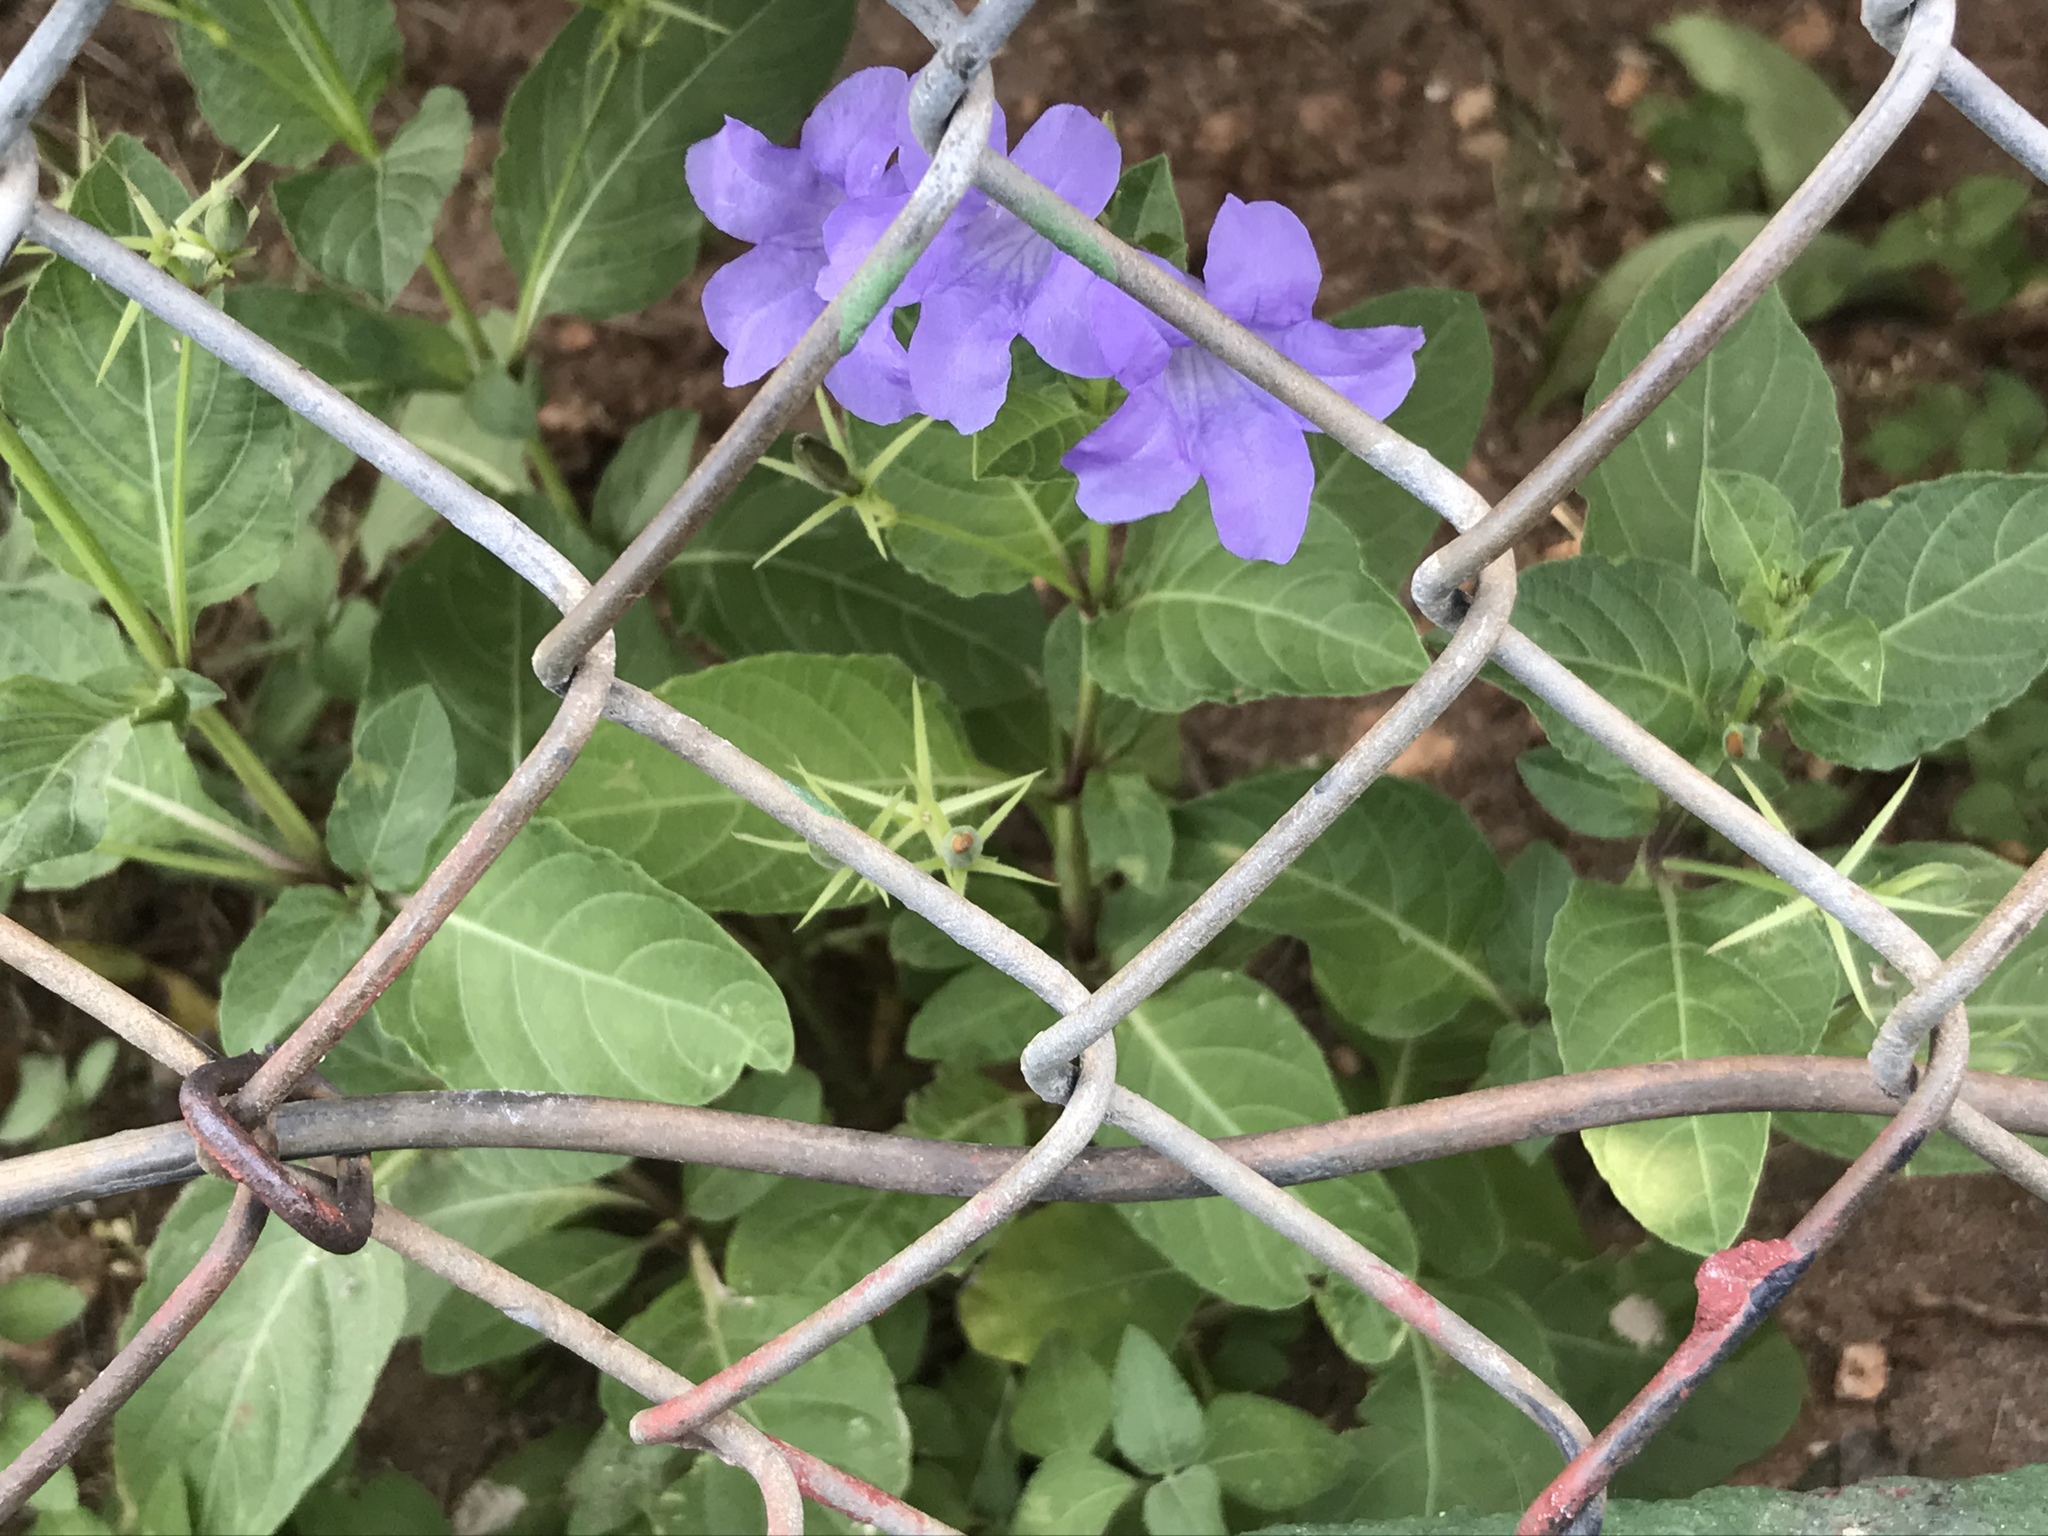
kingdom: Plantae
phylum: Tracheophyta
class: Magnoliopsida
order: Lamiales
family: Acanthaceae
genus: Ruellia
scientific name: Ruellia ciliatiflora
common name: Hairyflower wild petunia
